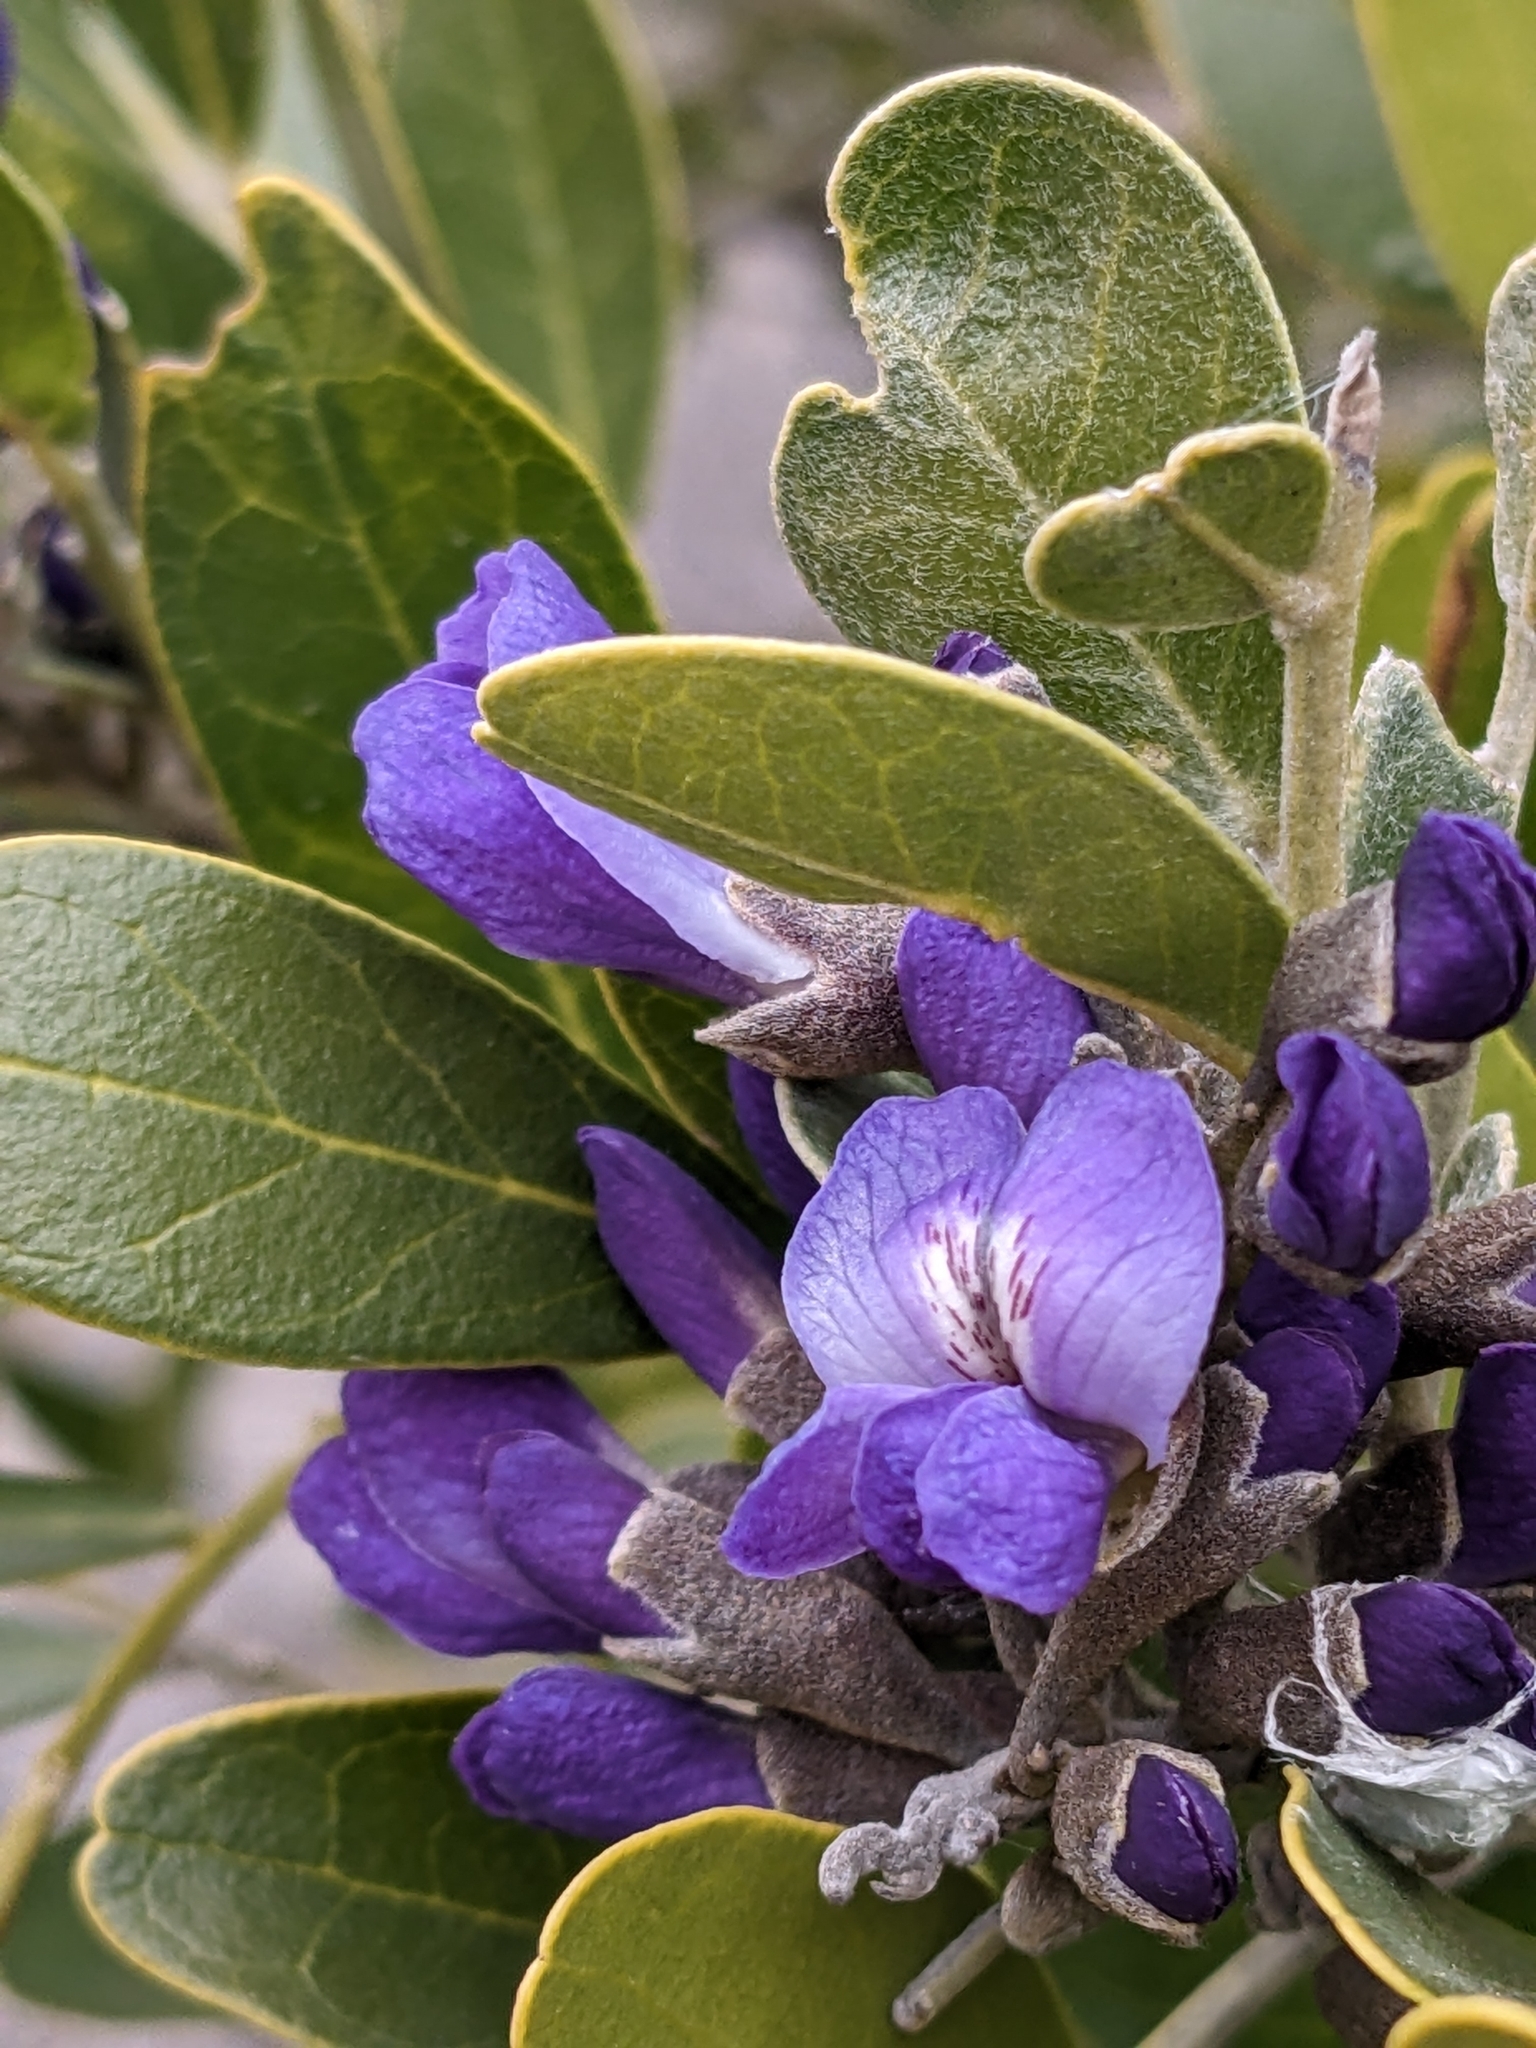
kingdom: Plantae
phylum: Tracheophyta
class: Magnoliopsida
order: Fabales
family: Fabaceae
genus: Dermatophyllum
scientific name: Dermatophyllum secundiflorum
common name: Texas-mountain-laurel
